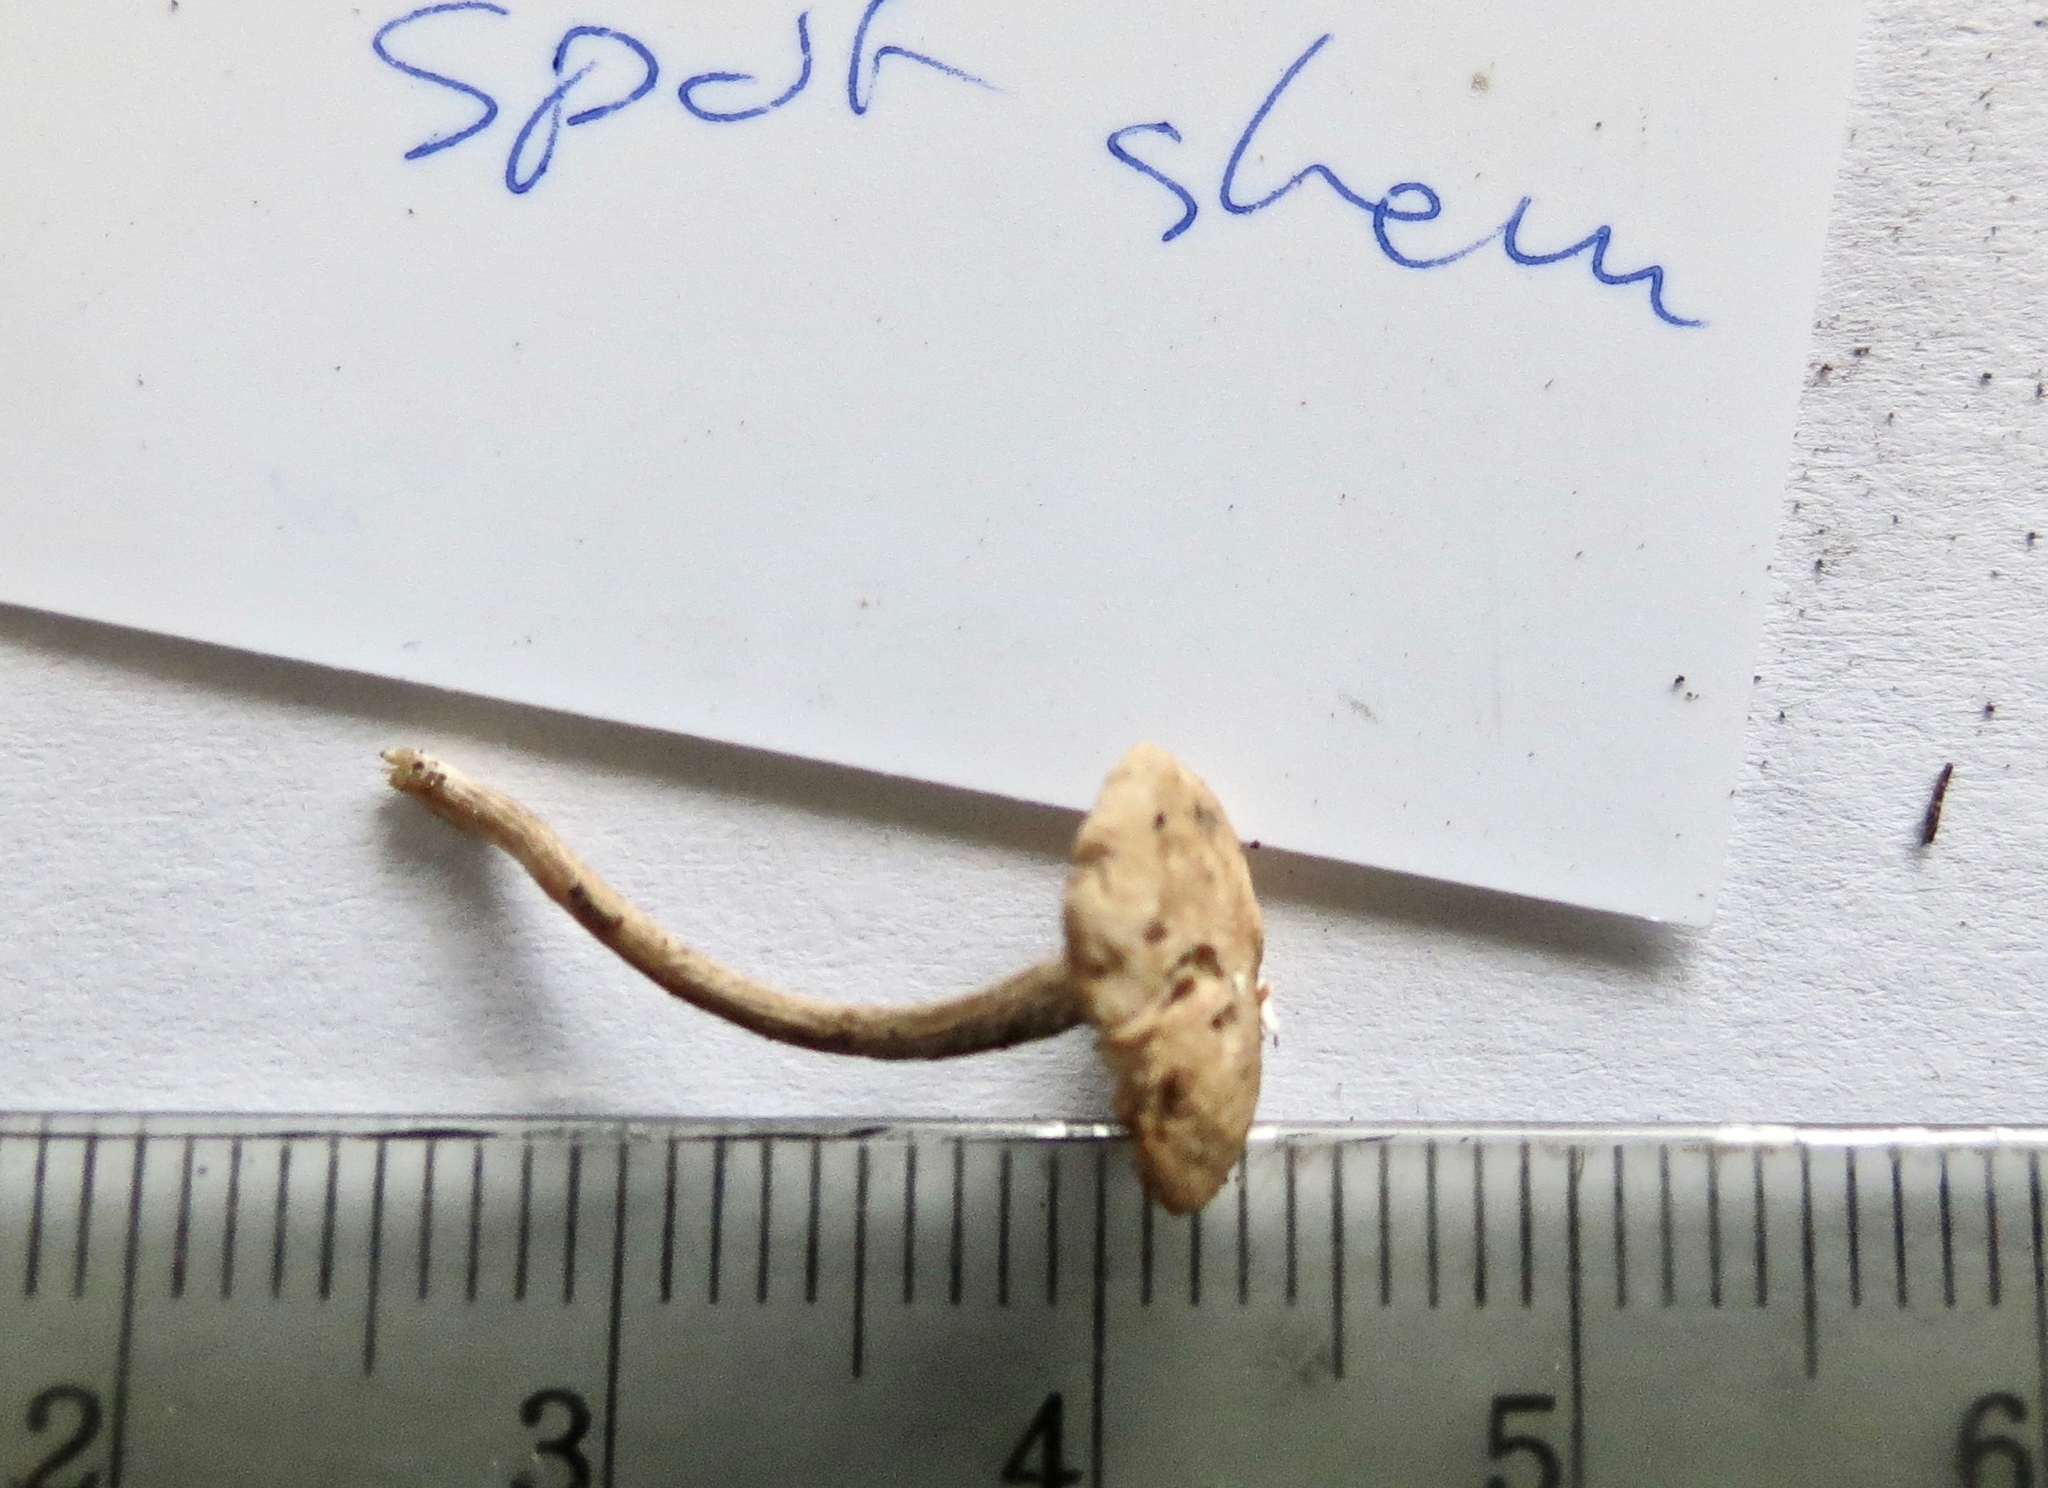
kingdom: Fungi
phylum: Basidiomycota
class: Agaricomycetes
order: Agaricales
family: Marasmiaceae
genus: Marasmius
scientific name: Marasmius oreades
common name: Fairy ring champignon
